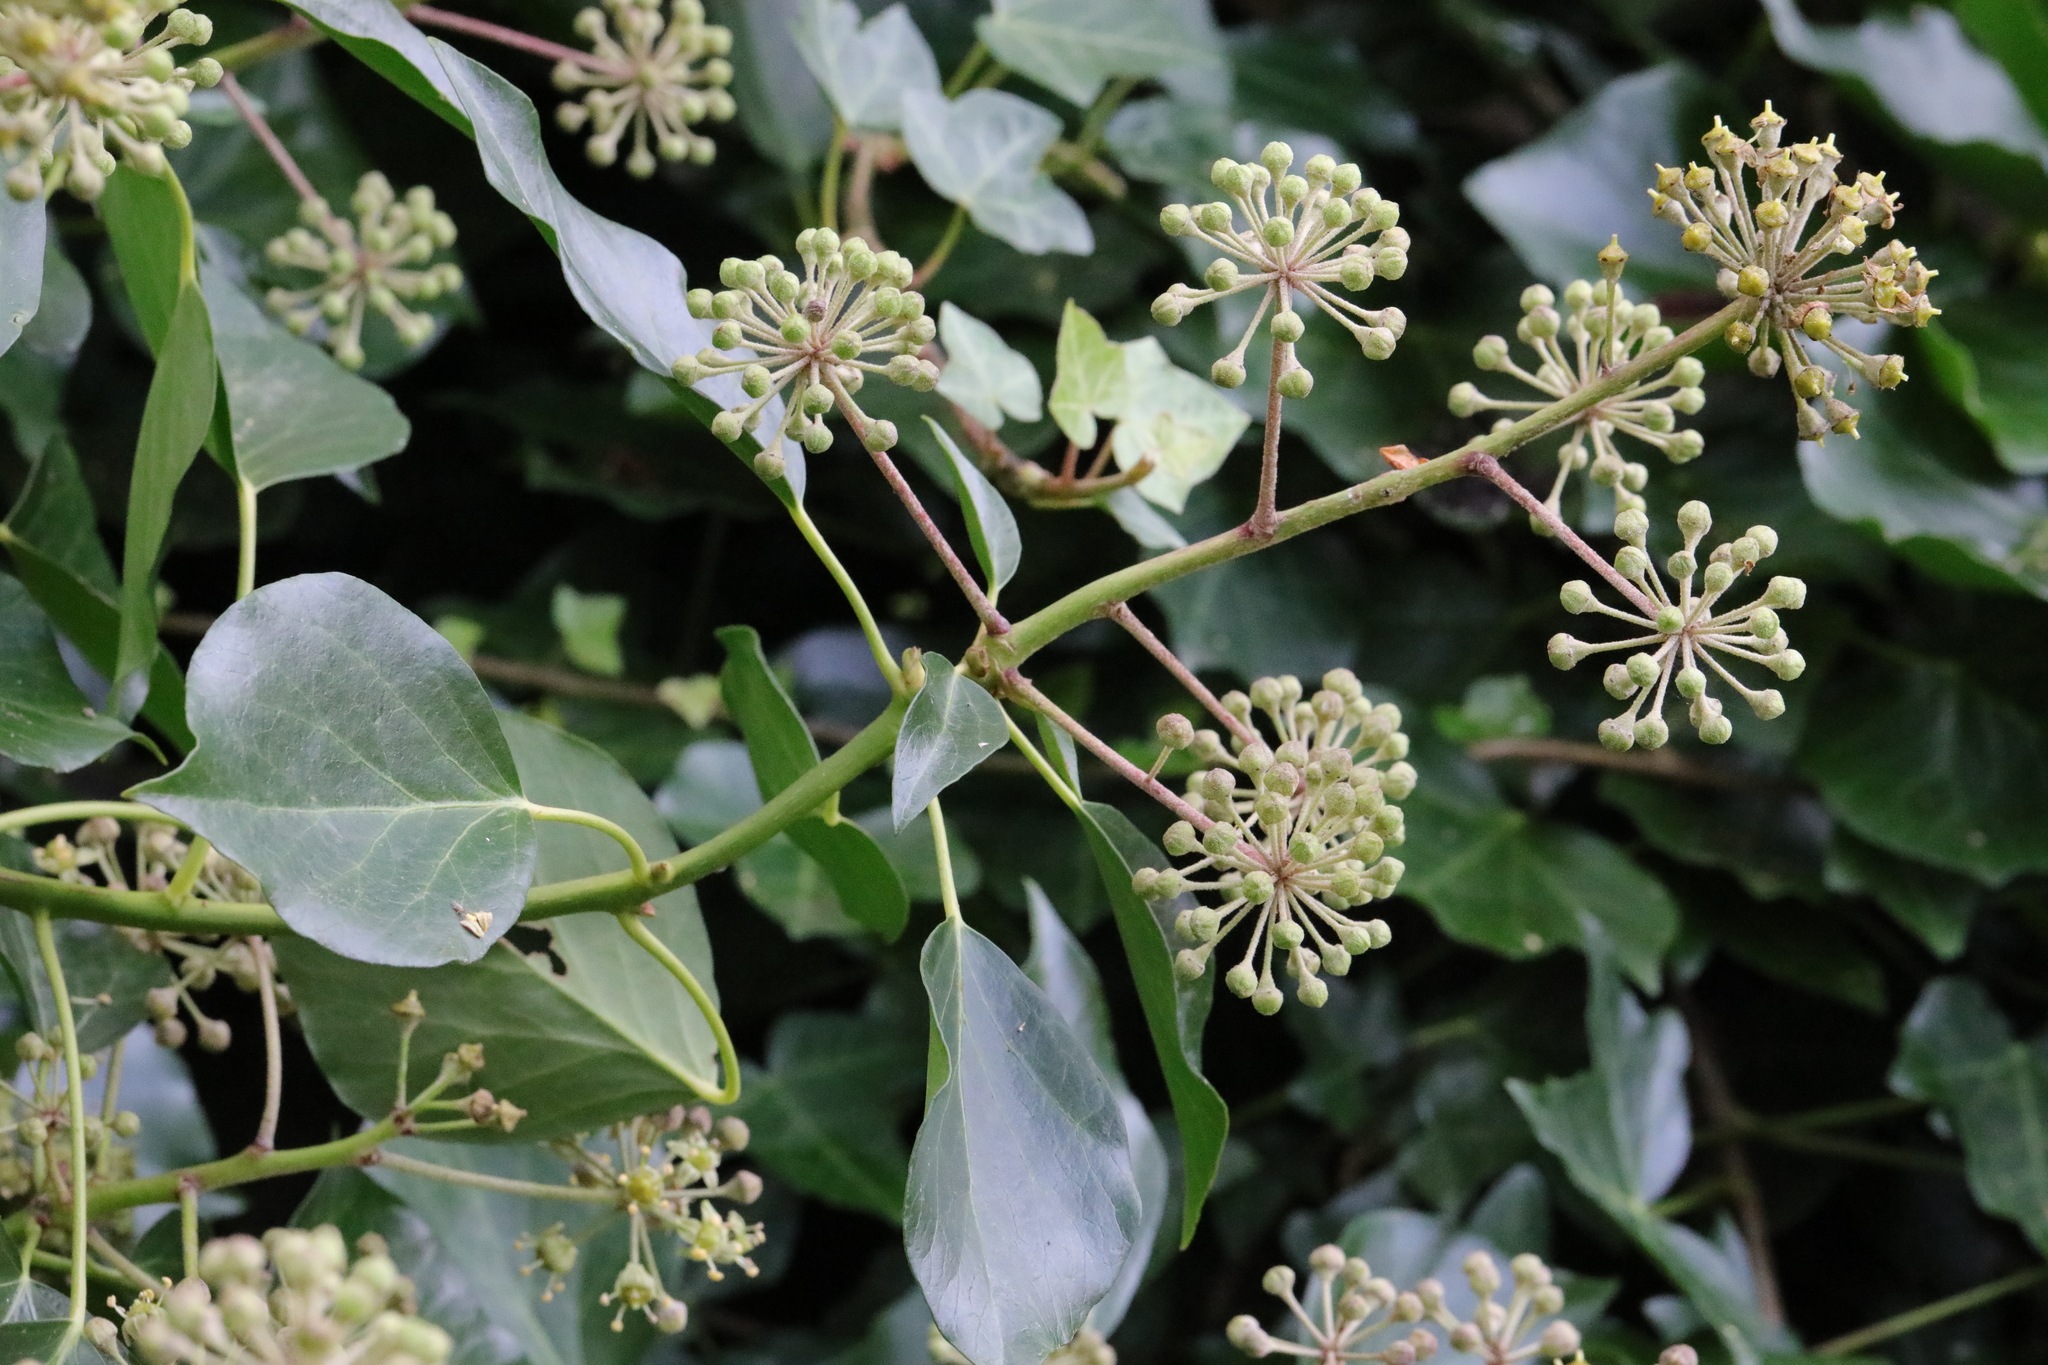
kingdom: Plantae
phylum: Tracheophyta
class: Magnoliopsida
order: Apiales
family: Araliaceae
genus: Hedera
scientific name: Hedera helix
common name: Ivy
